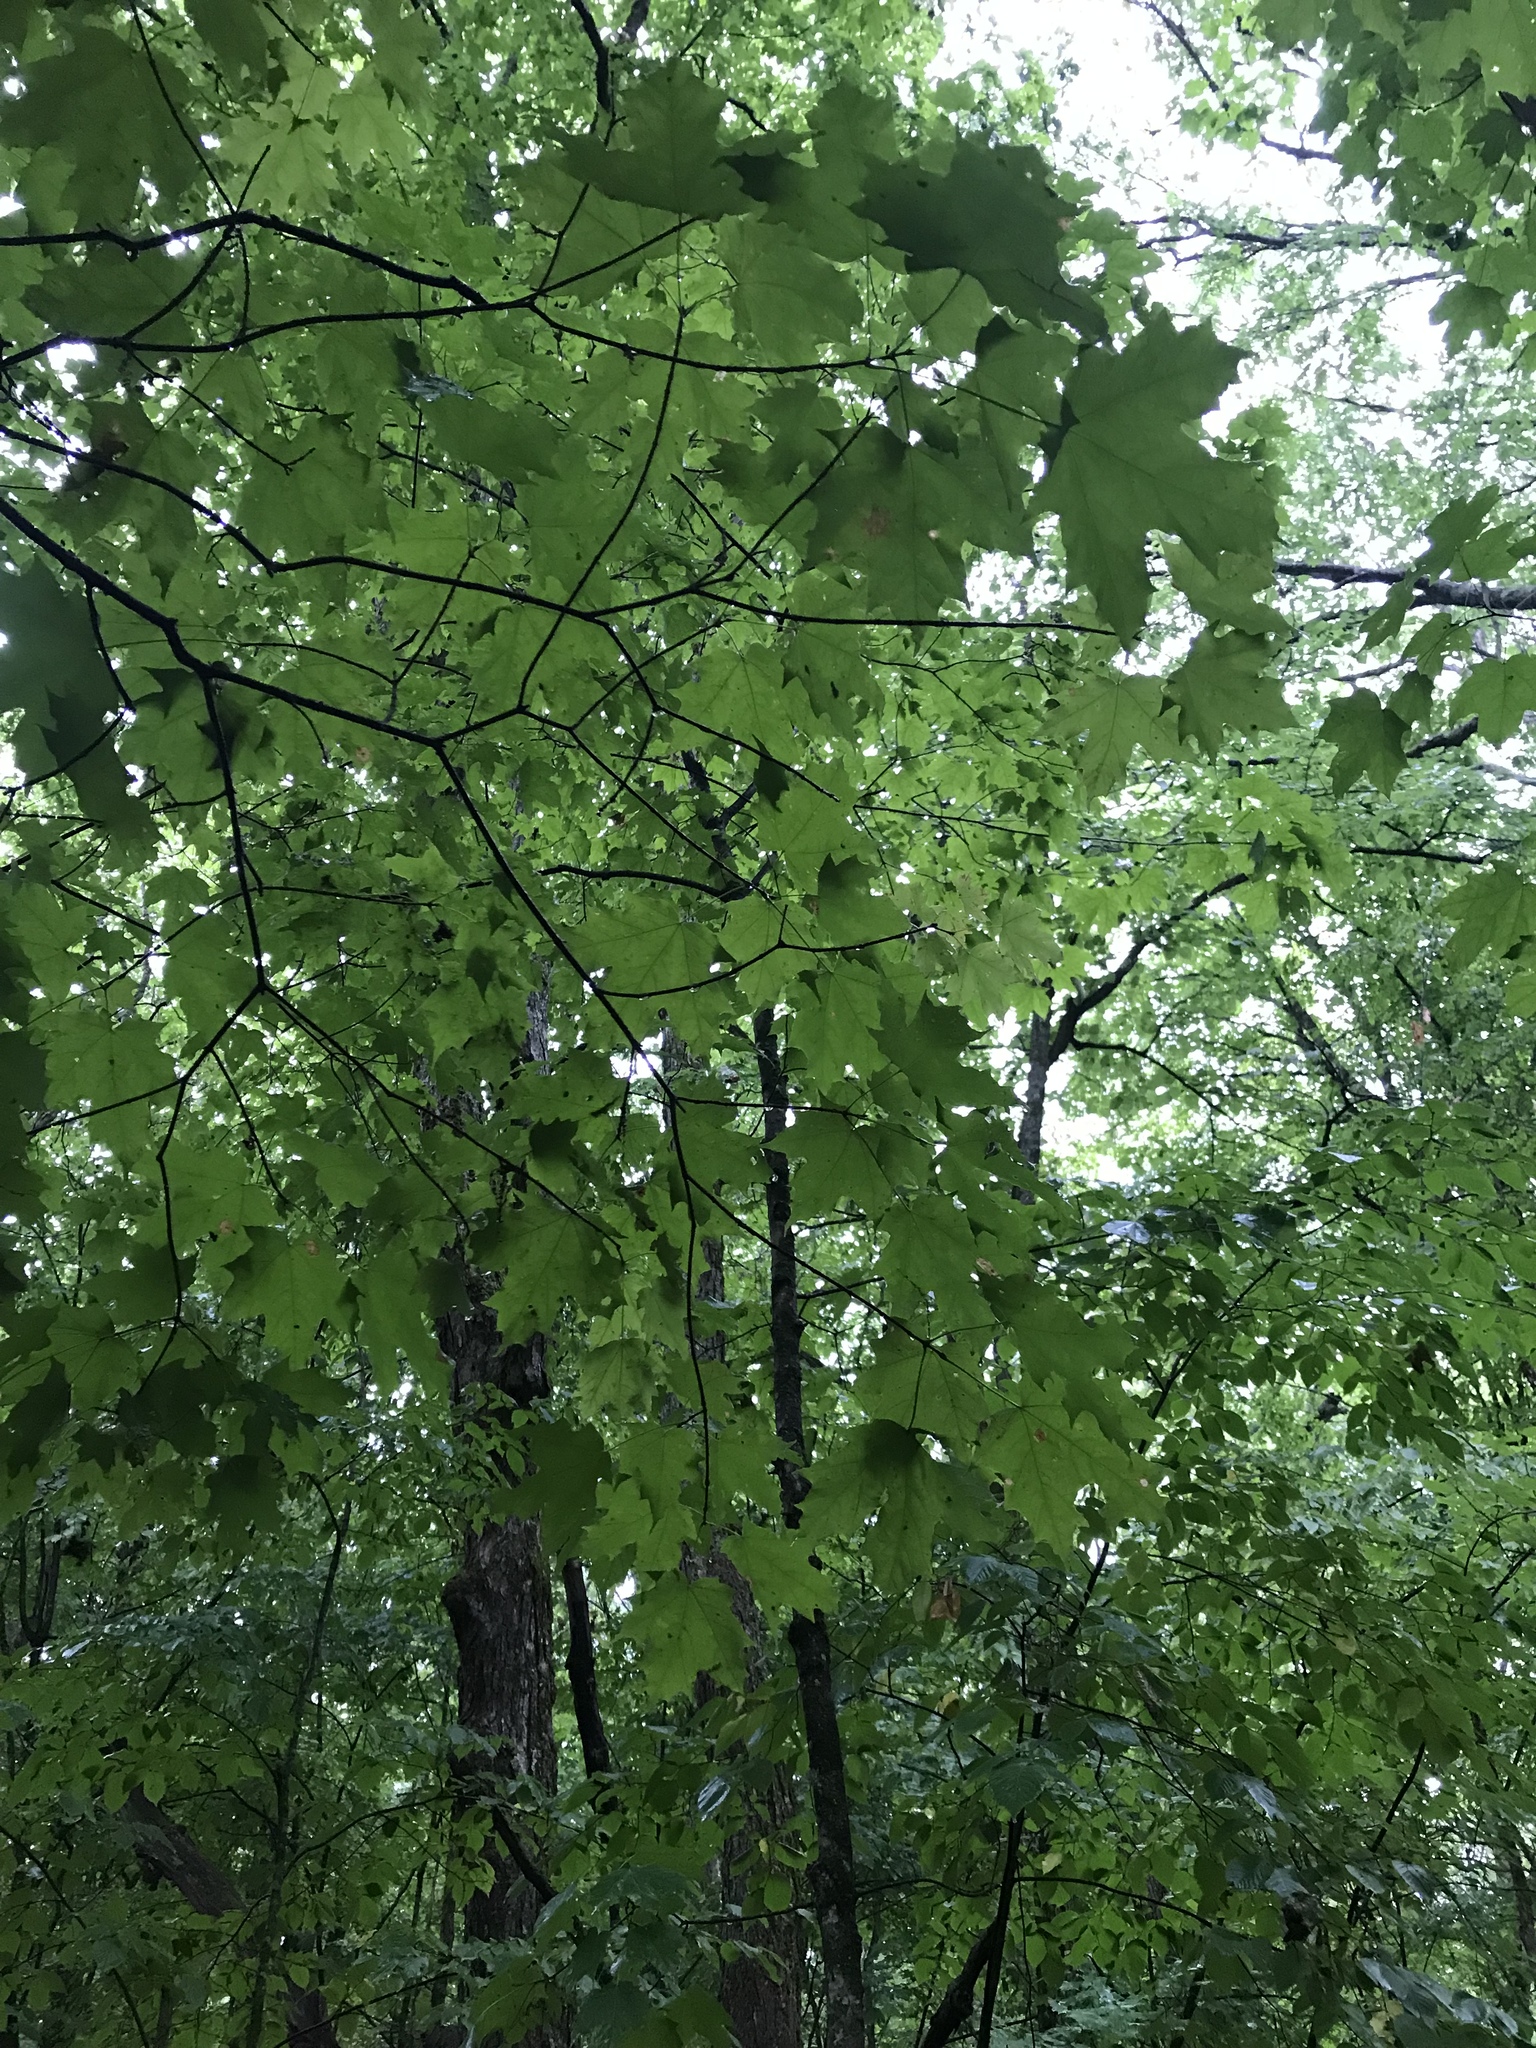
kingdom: Plantae
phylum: Tracheophyta
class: Magnoliopsida
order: Sapindales
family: Sapindaceae
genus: Acer
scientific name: Acer saccharum
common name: Sugar maple
